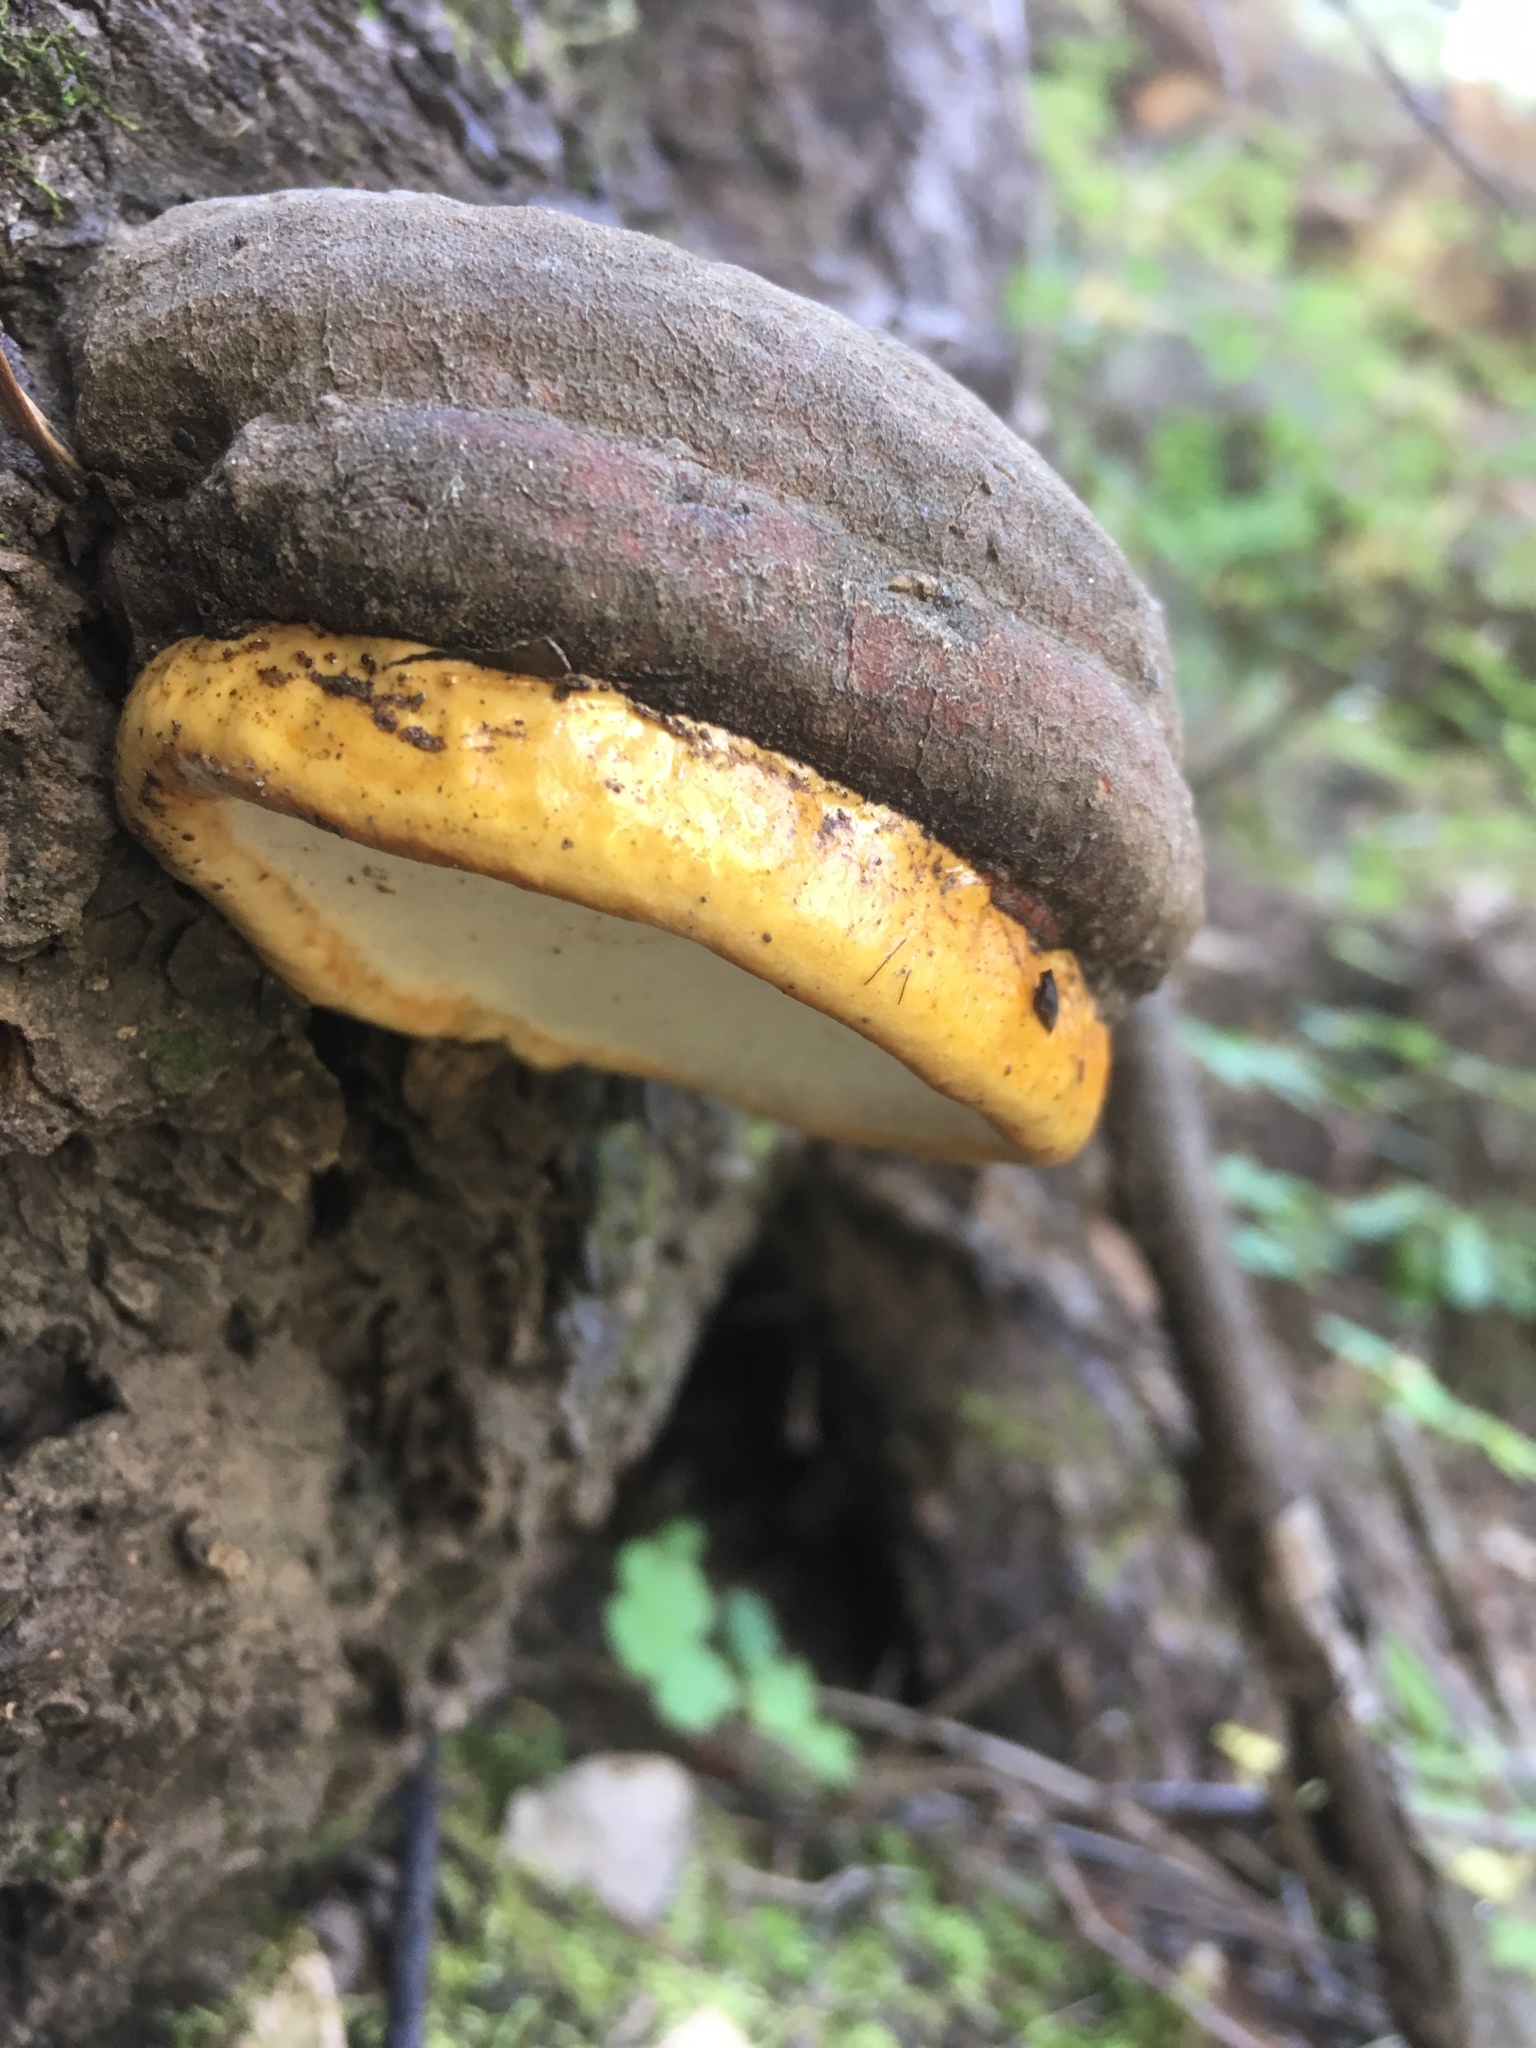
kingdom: Fungi
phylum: Basidiomycota
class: Agaricomycetes
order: Polyporales
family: Fomitopsidaceae
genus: Fomitopsis
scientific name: Fomitopsis schrenkii
